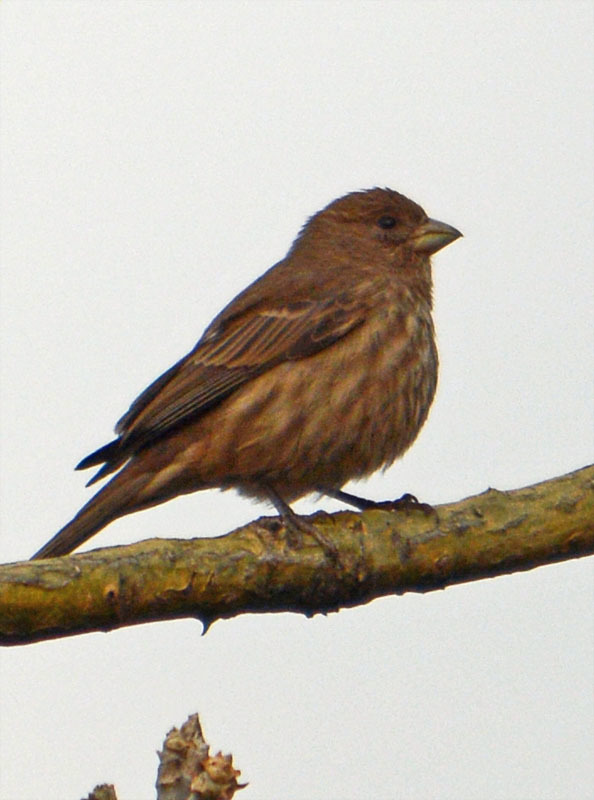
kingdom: Animalia
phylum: Chordata
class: Aves
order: Passeriformes
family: Fringillidae
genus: Haemorhous
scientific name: Haemorhous mexicanus
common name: House finch
